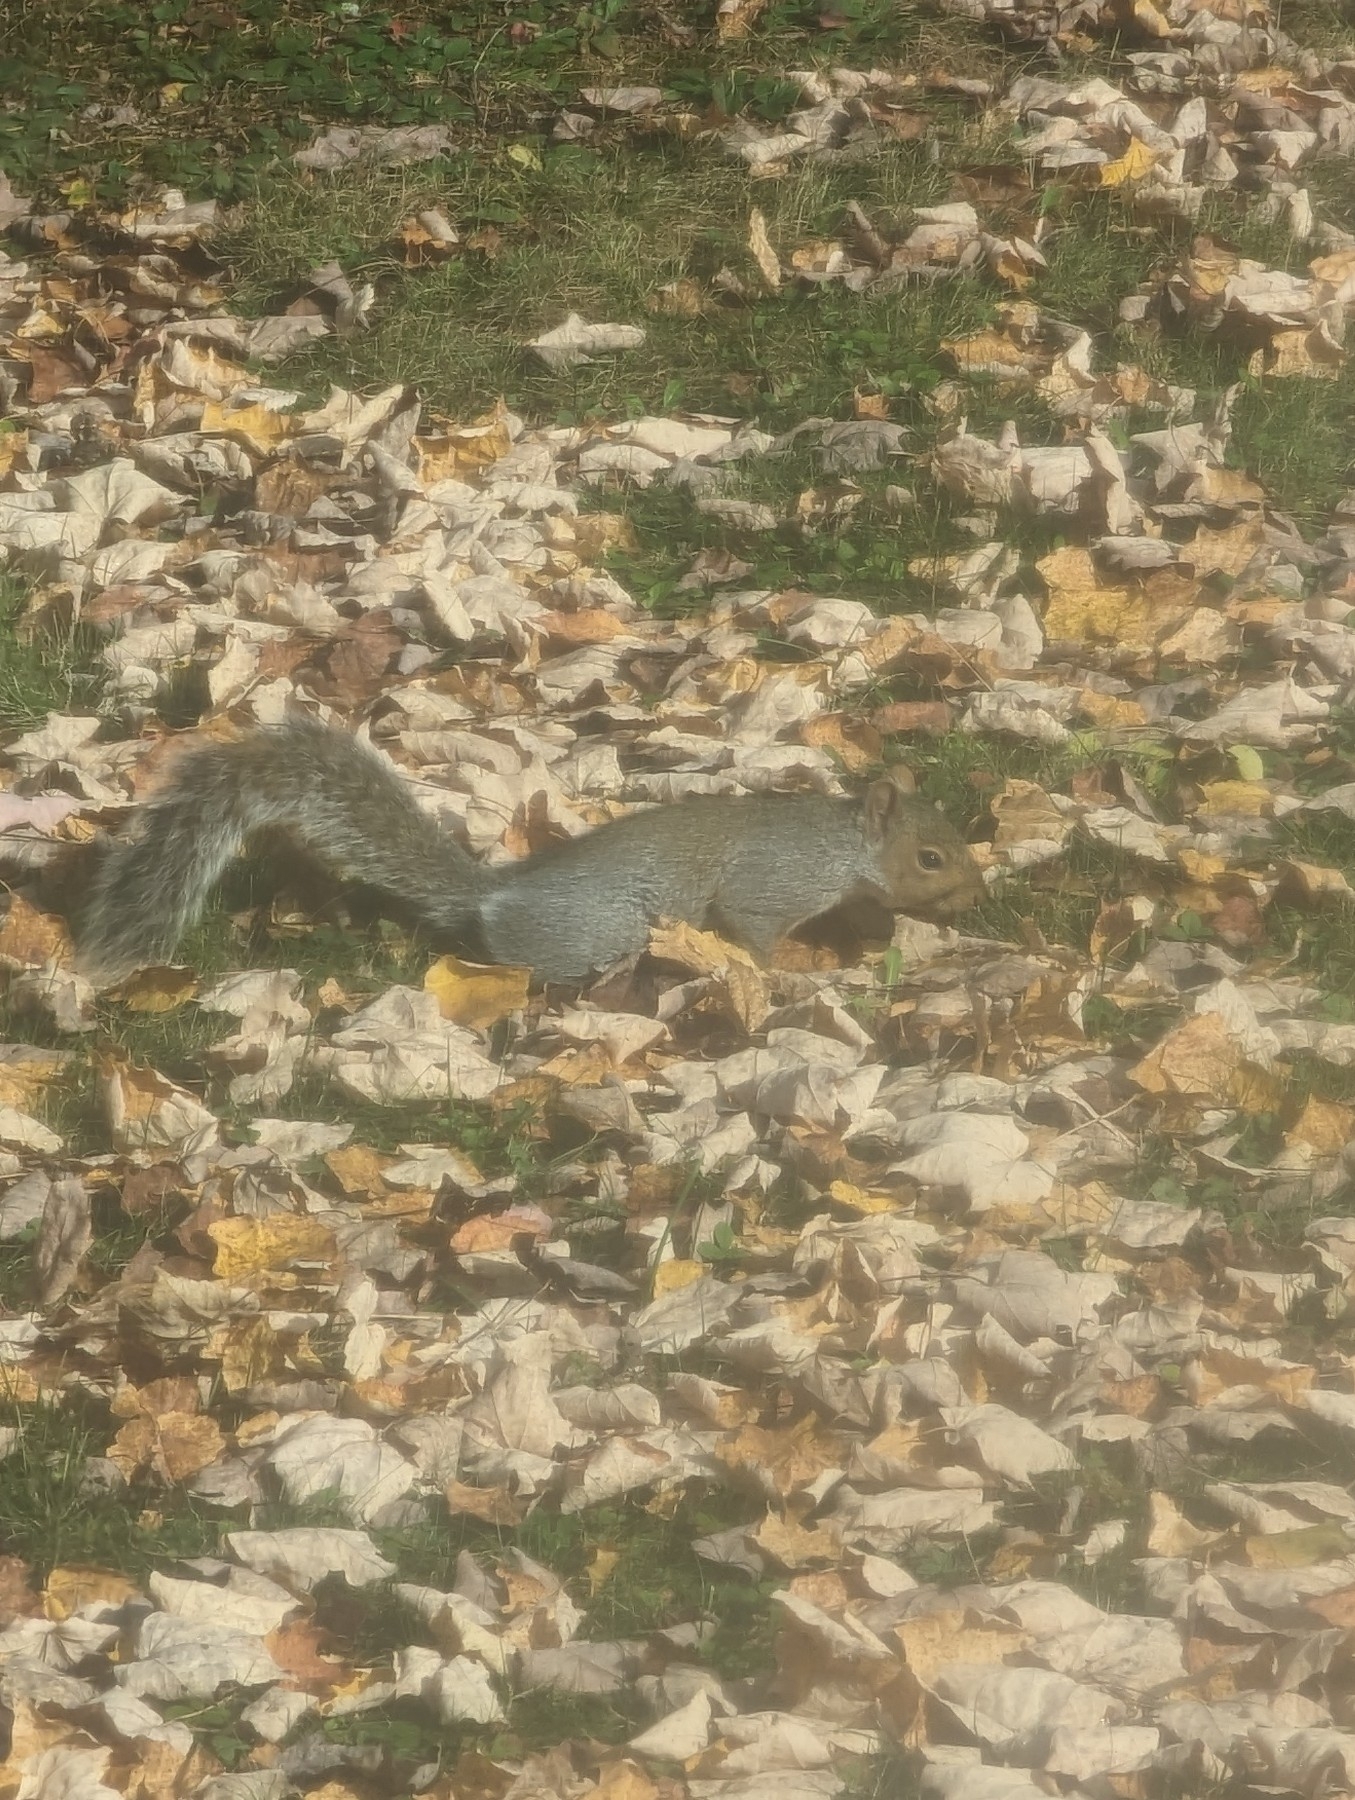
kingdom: Animalia
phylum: Chordata
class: Mammalia
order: Rodentia
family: Sciuridae
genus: Sciurus
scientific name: Sciurus carolinensis
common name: Eastern gray squirrel
